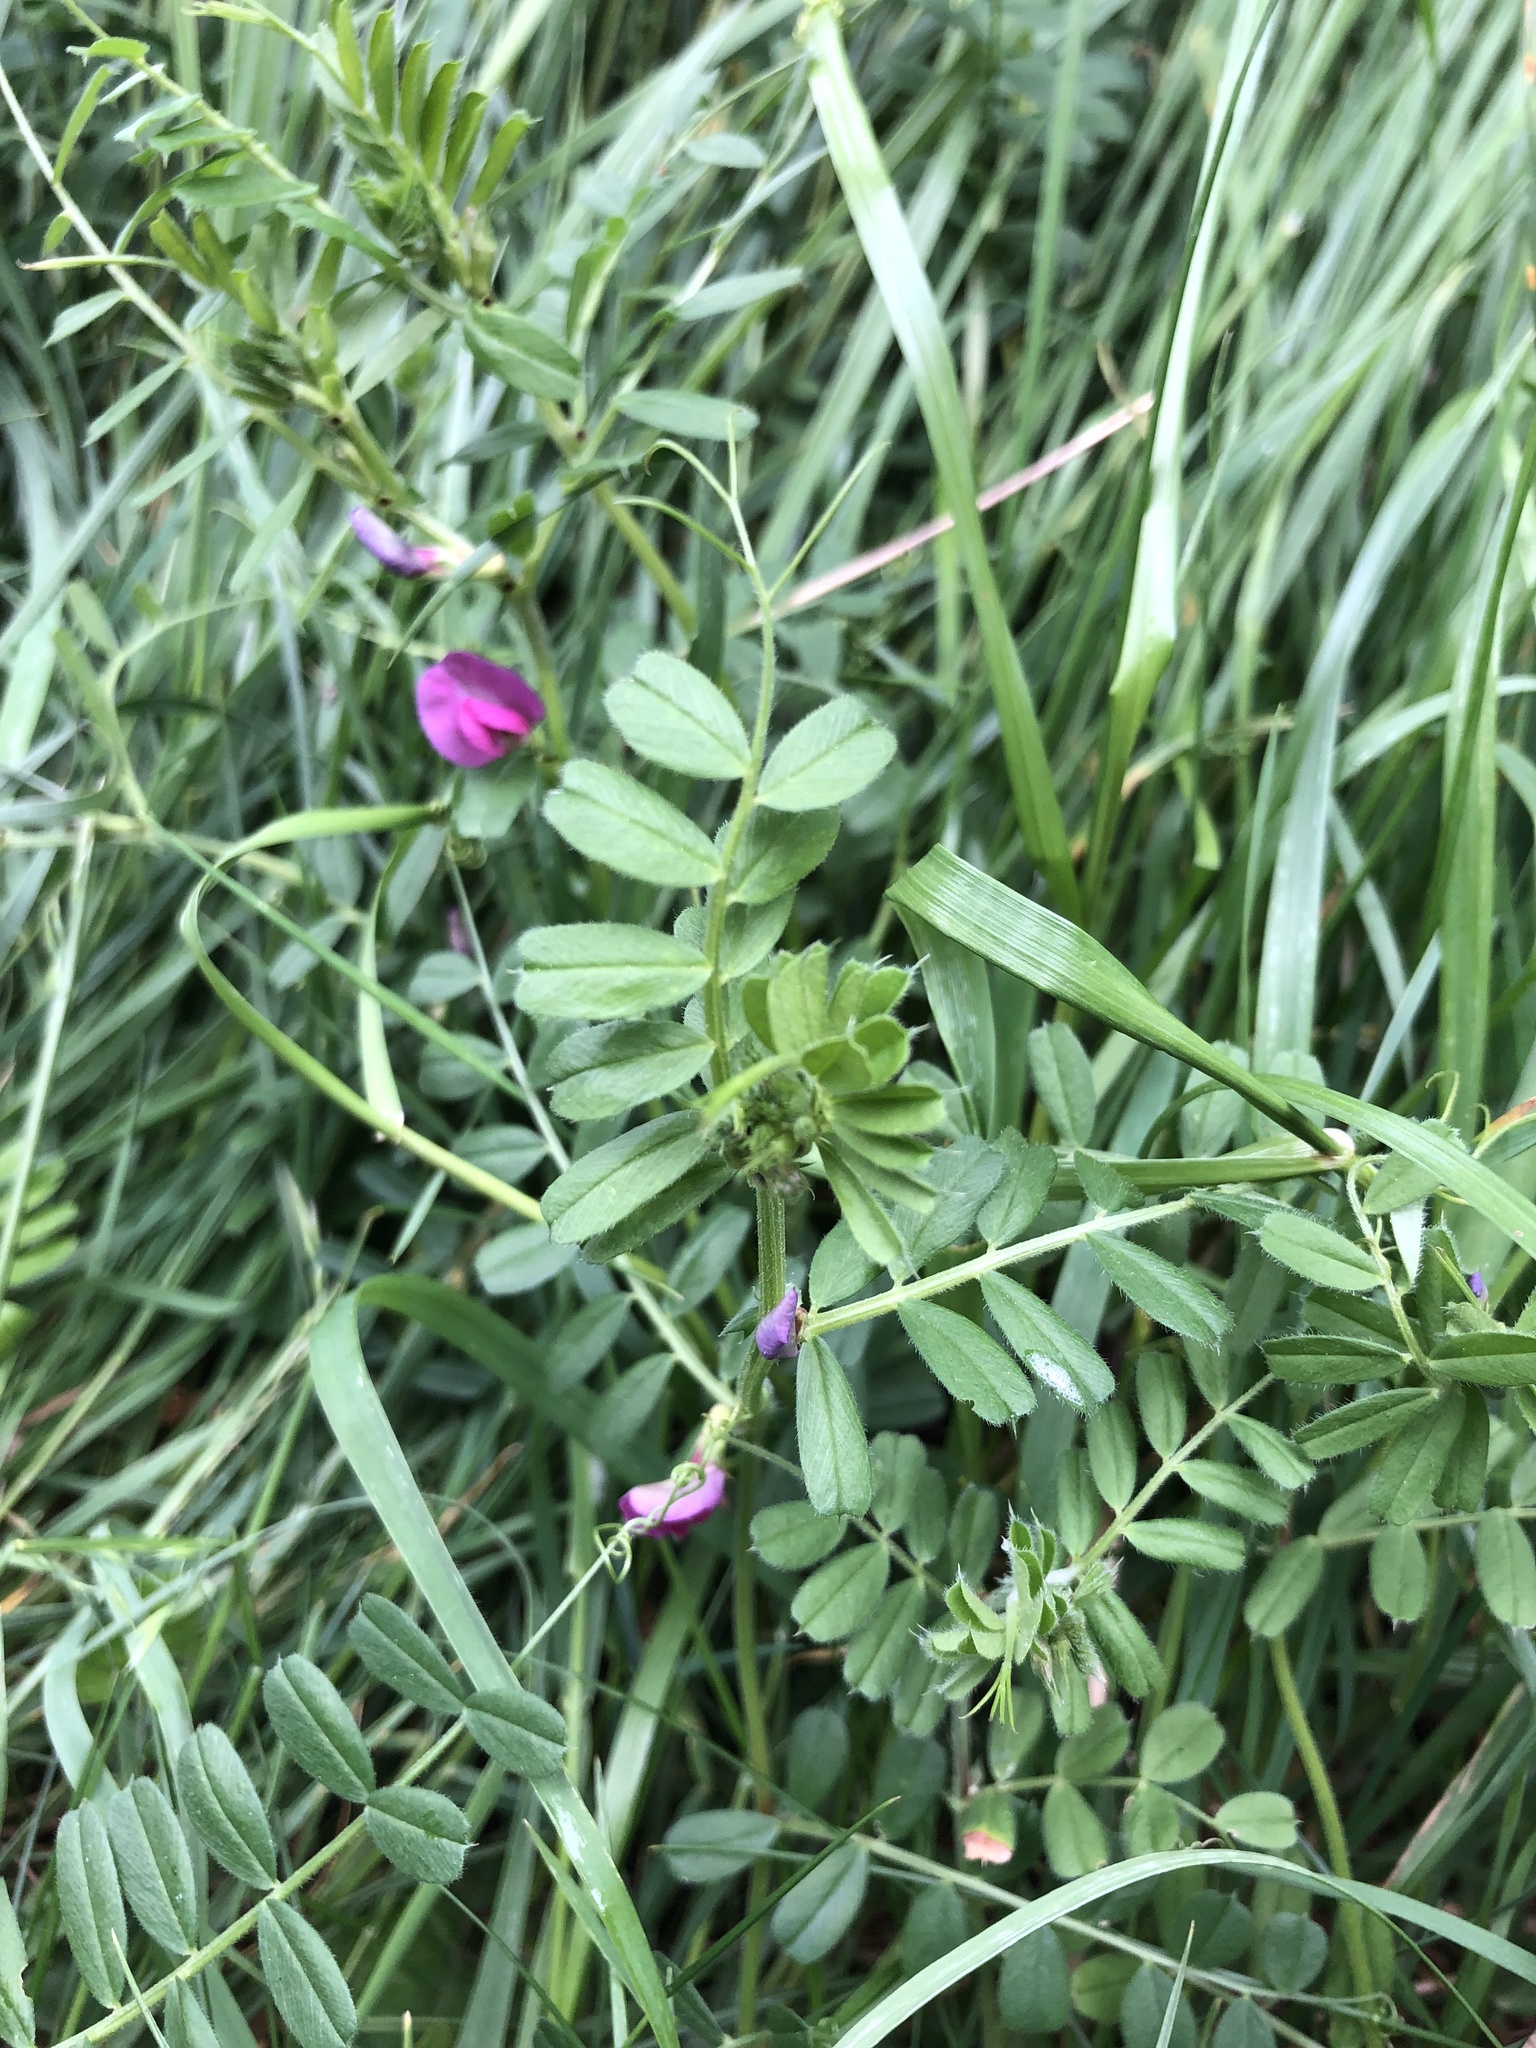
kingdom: Plantae
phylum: Tracheophyta
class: Magnoliopsida
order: Fabales
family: Fabaceae
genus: Vicia
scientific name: Vicia sativa
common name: Garden vetch
